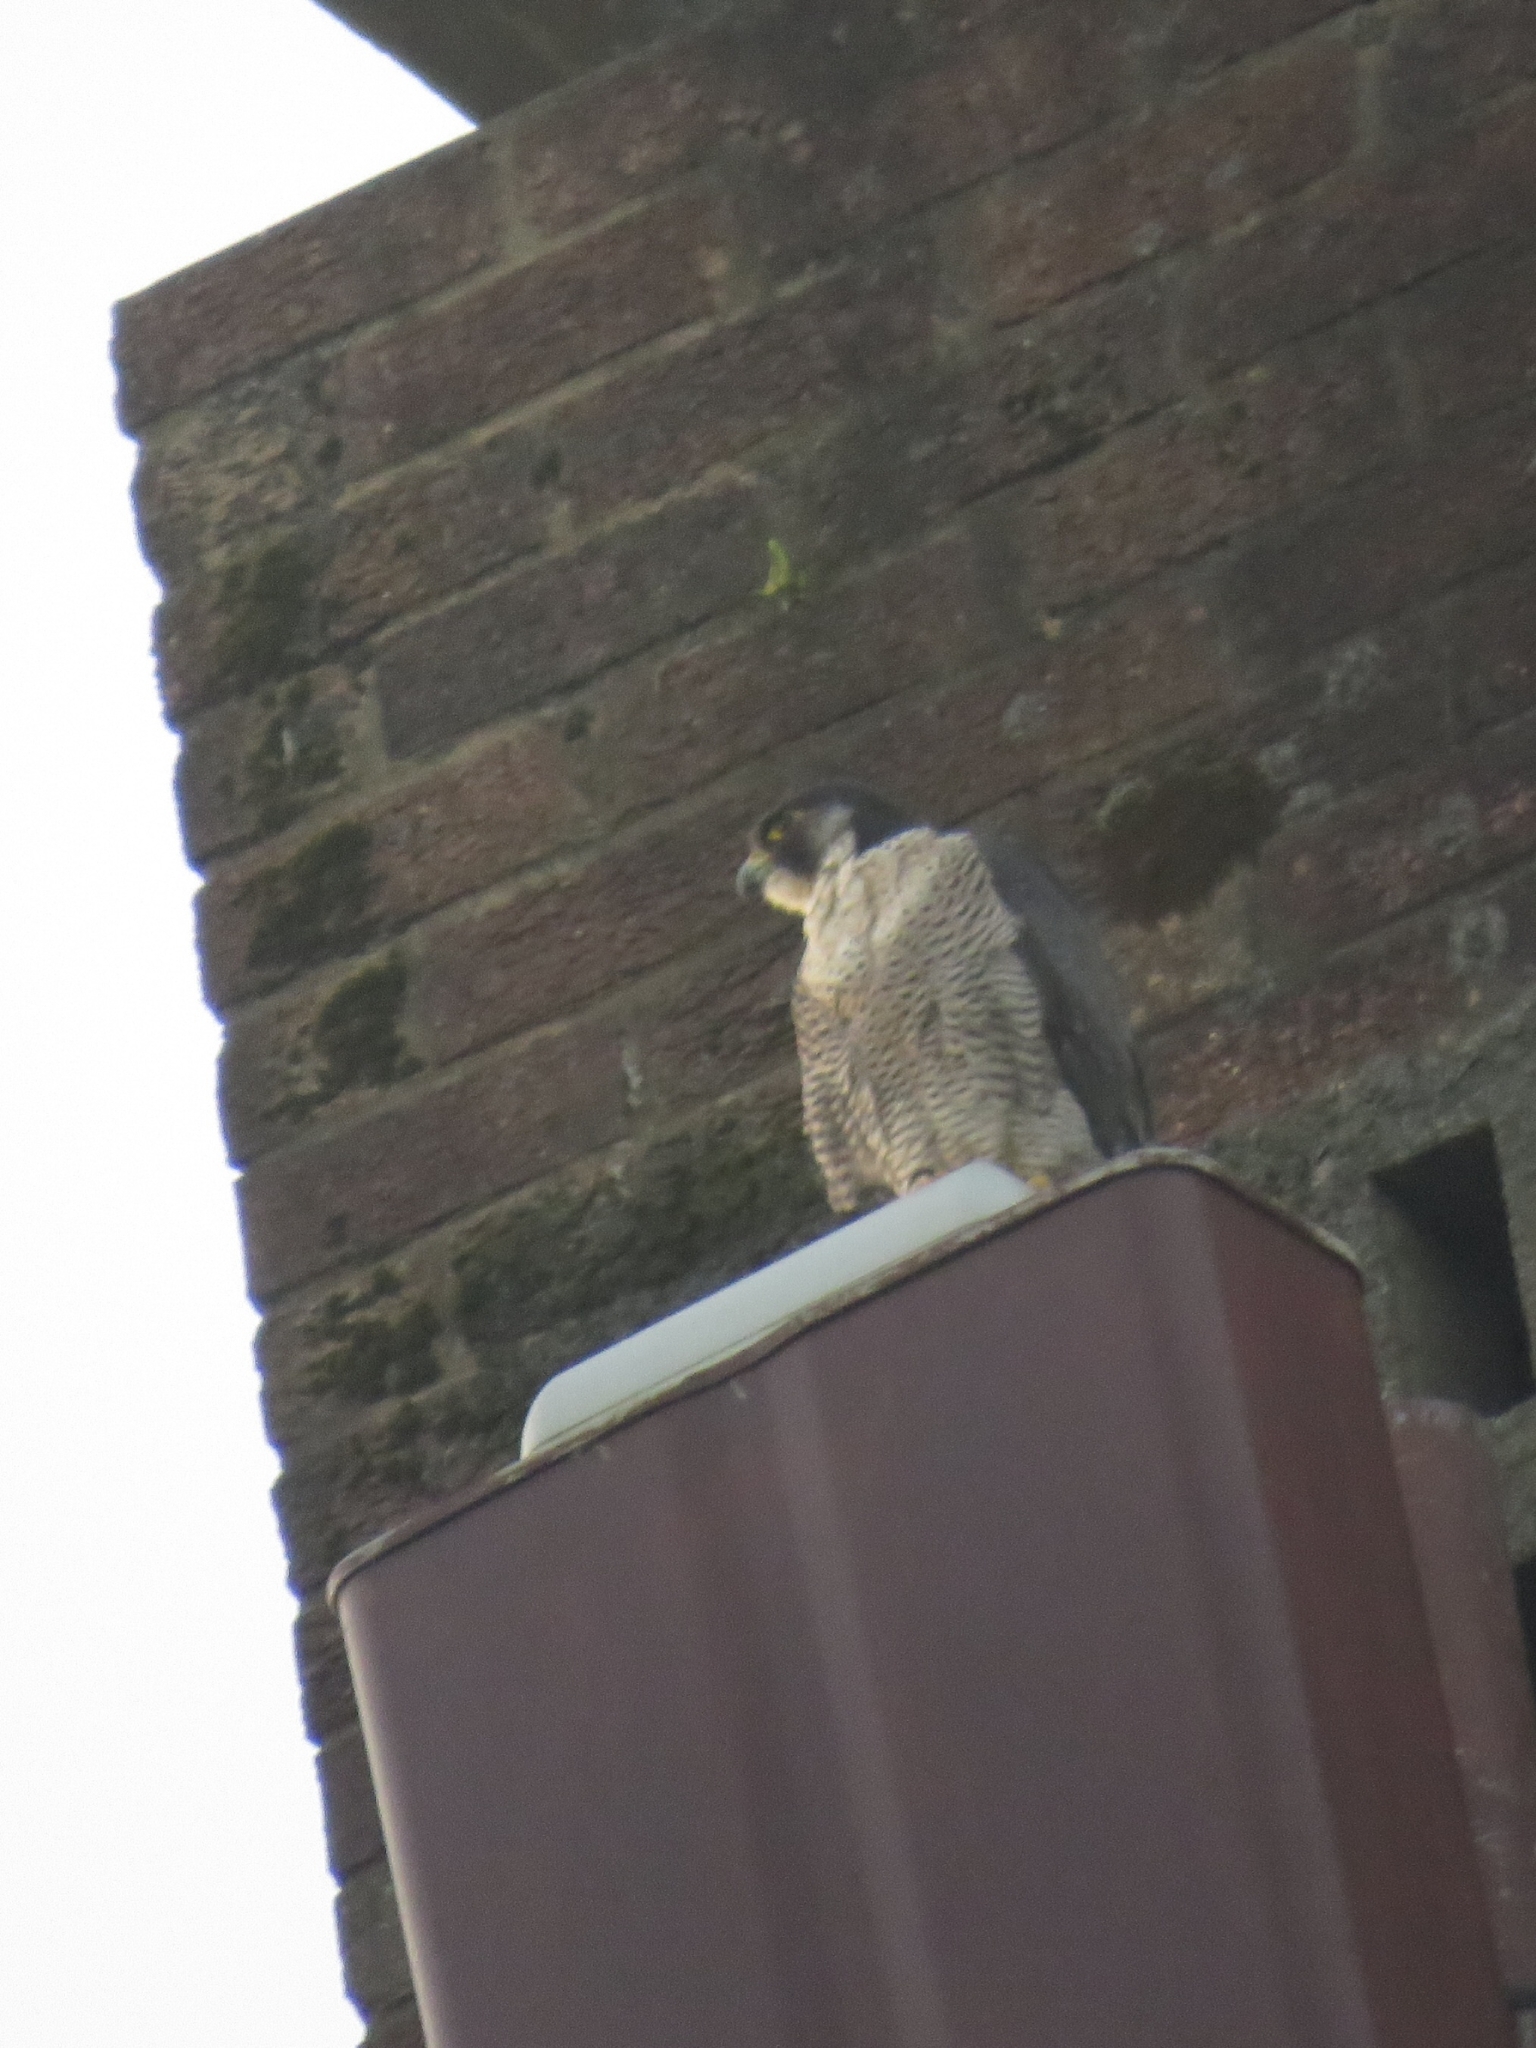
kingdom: Animalia
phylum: Chordata
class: Aves
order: Falconiformes
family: Falconidae
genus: Falco
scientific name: Falco peregrinus
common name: Peregrine falcon
